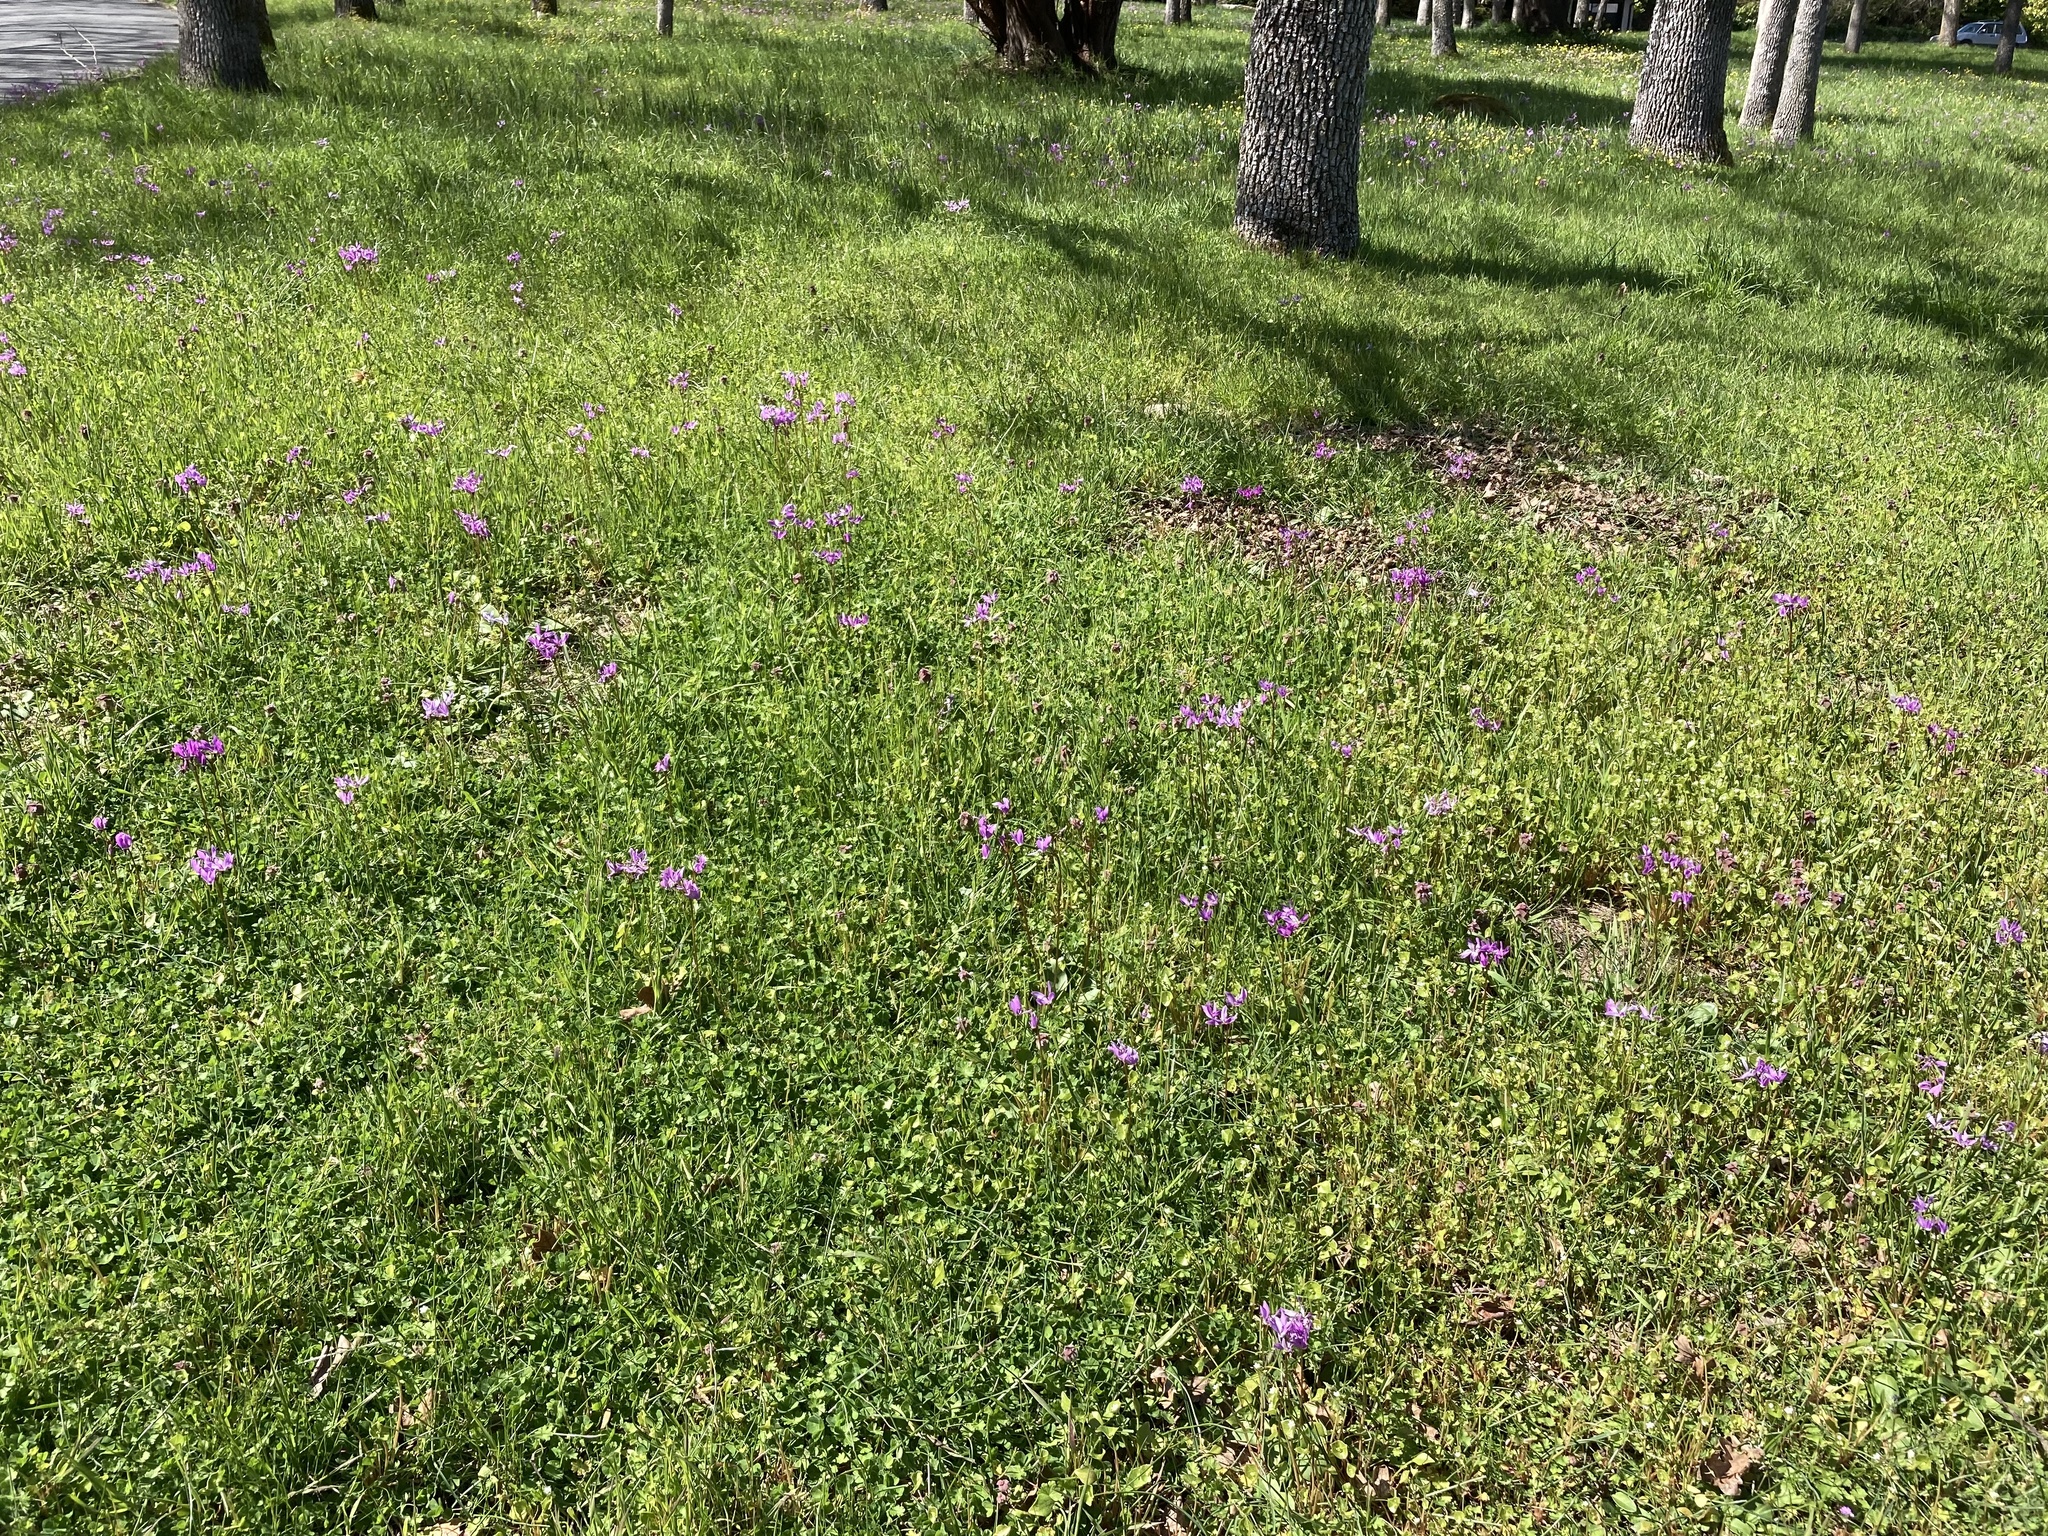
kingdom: Plantae
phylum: Tracheophyta
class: Magnoliopsida
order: Ericales
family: Primulaceae
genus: Dodecatheon
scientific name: Dodecatheon hendersonii
